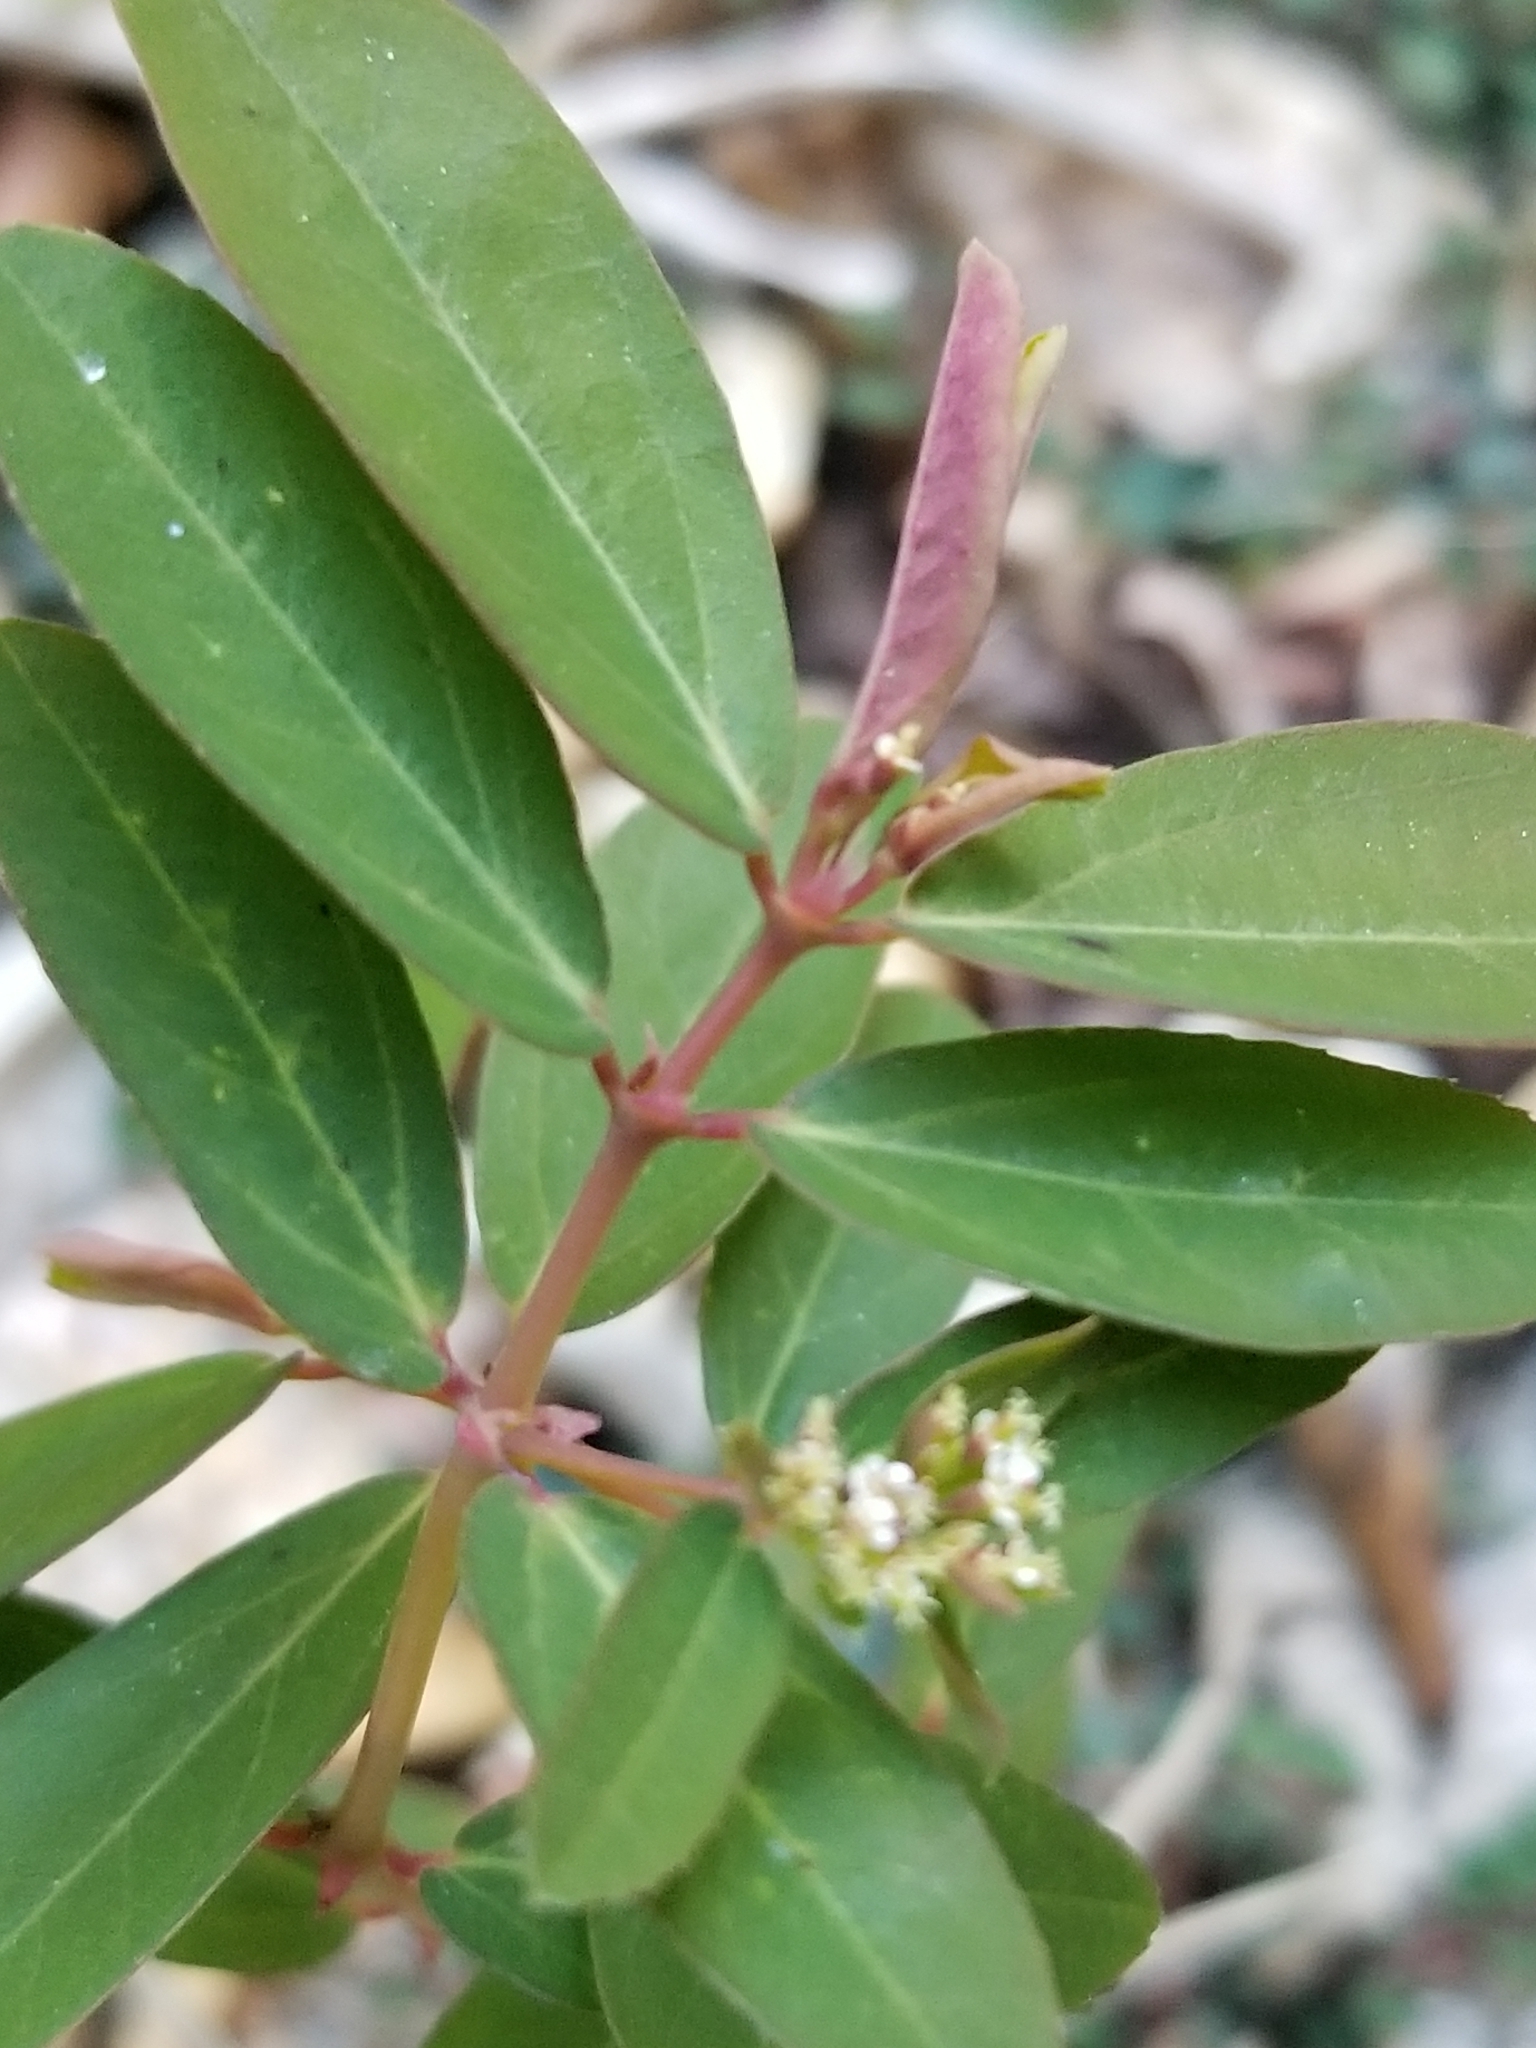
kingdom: Plantae
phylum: Tracheophyta
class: Magnoliopsida
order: Malpighiales
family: Euphorbiaceae
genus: Euphorbia
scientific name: Euphorbia hypericifolia
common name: Graceful sandmat
